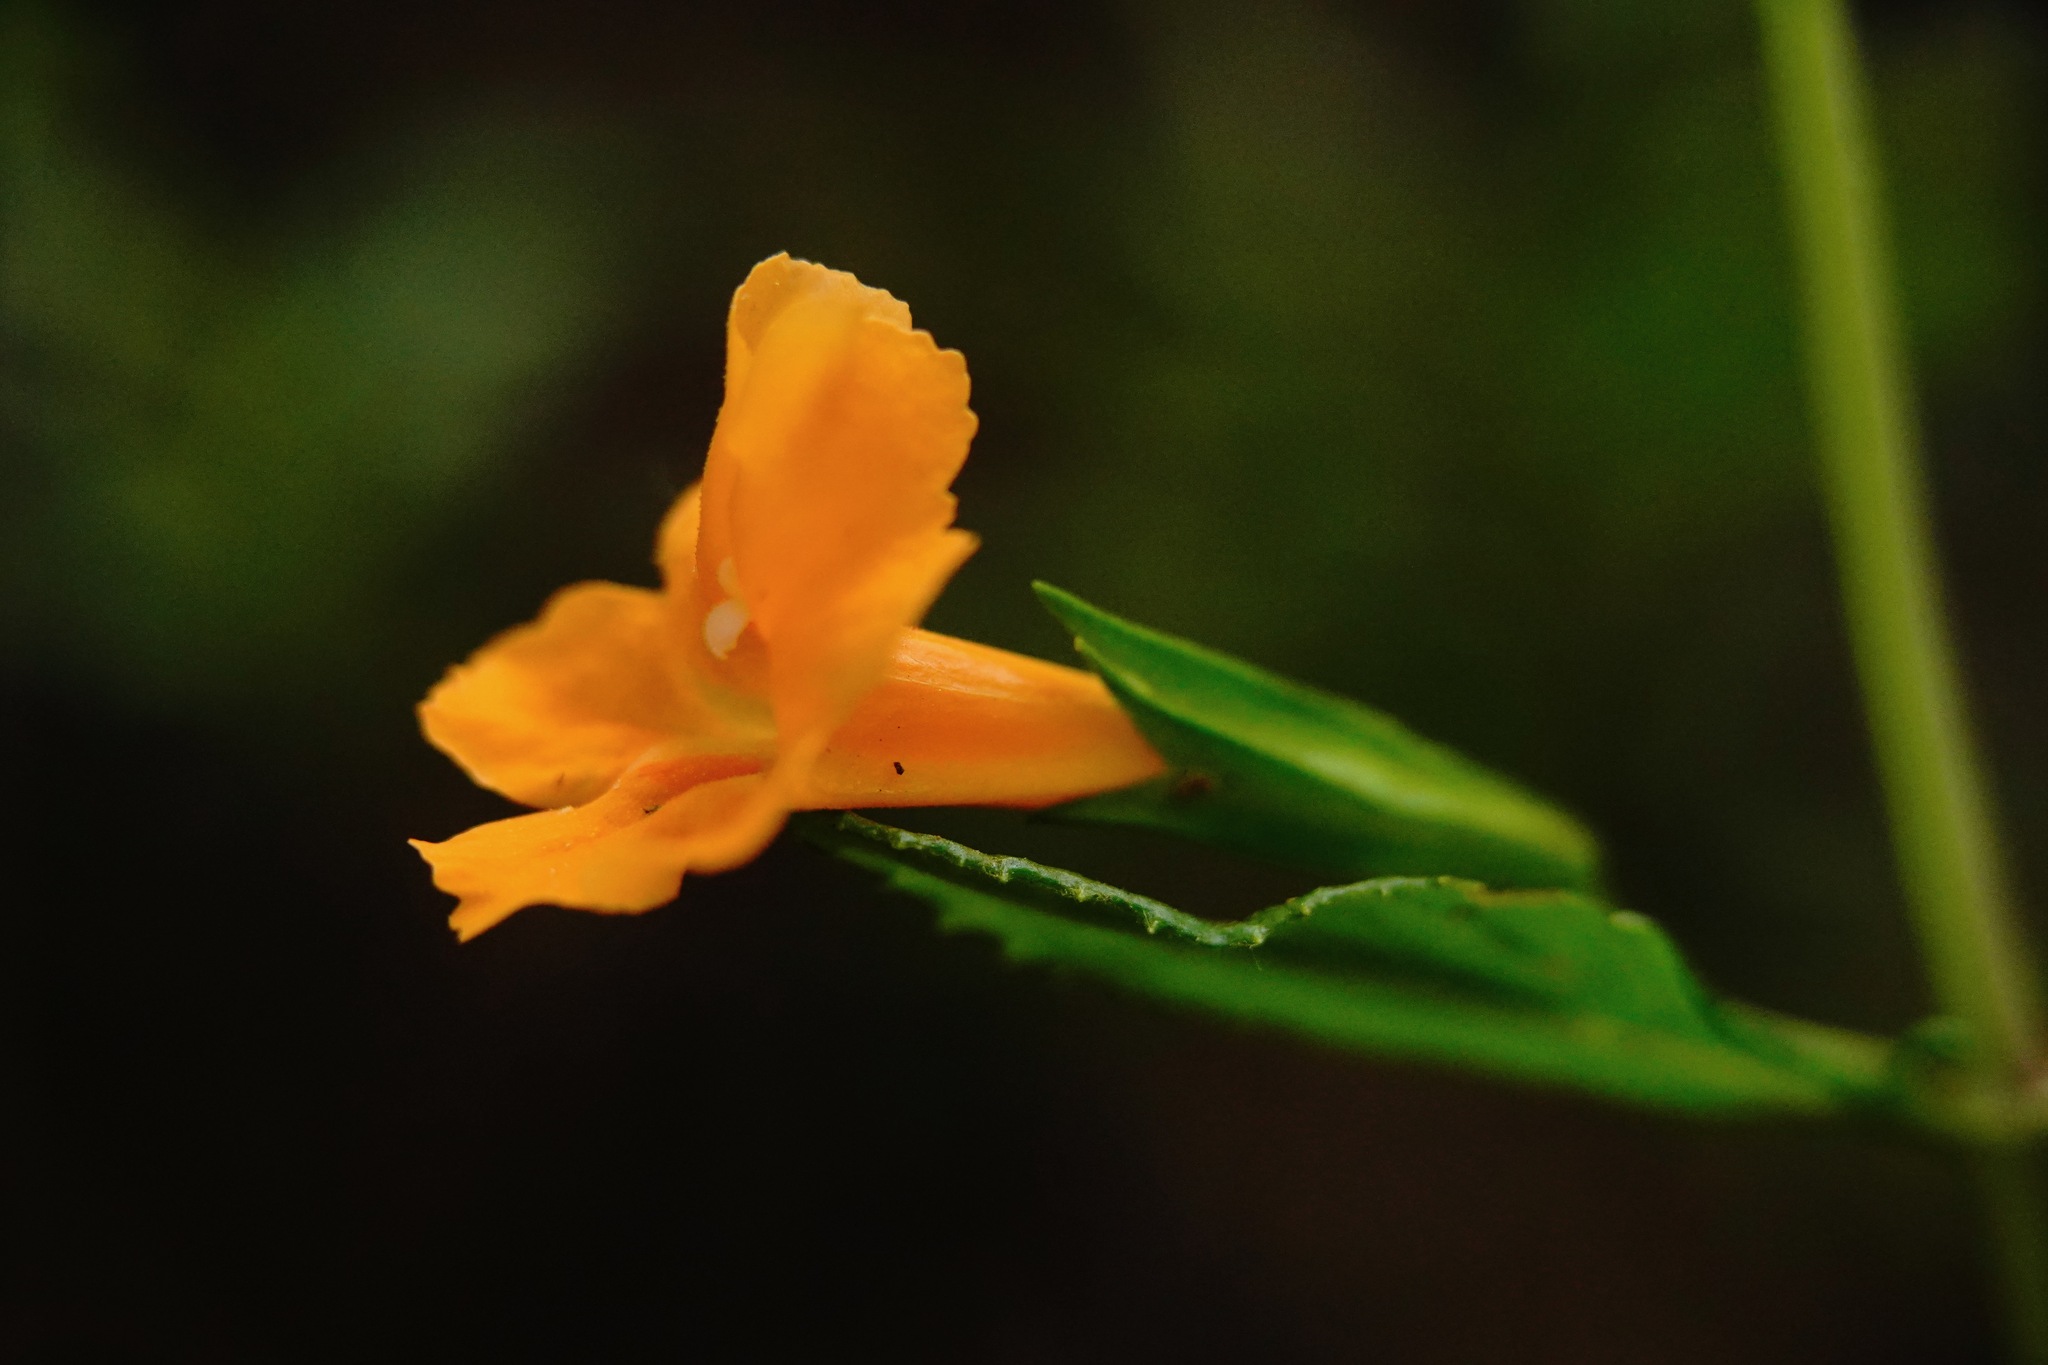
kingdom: Plantae
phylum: Tracheophyta
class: Magnoliopsida
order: Lamiales
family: Phrymaceae
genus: Diplacus
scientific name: Diplacus aurantiacus
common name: Bush monkey-flower
